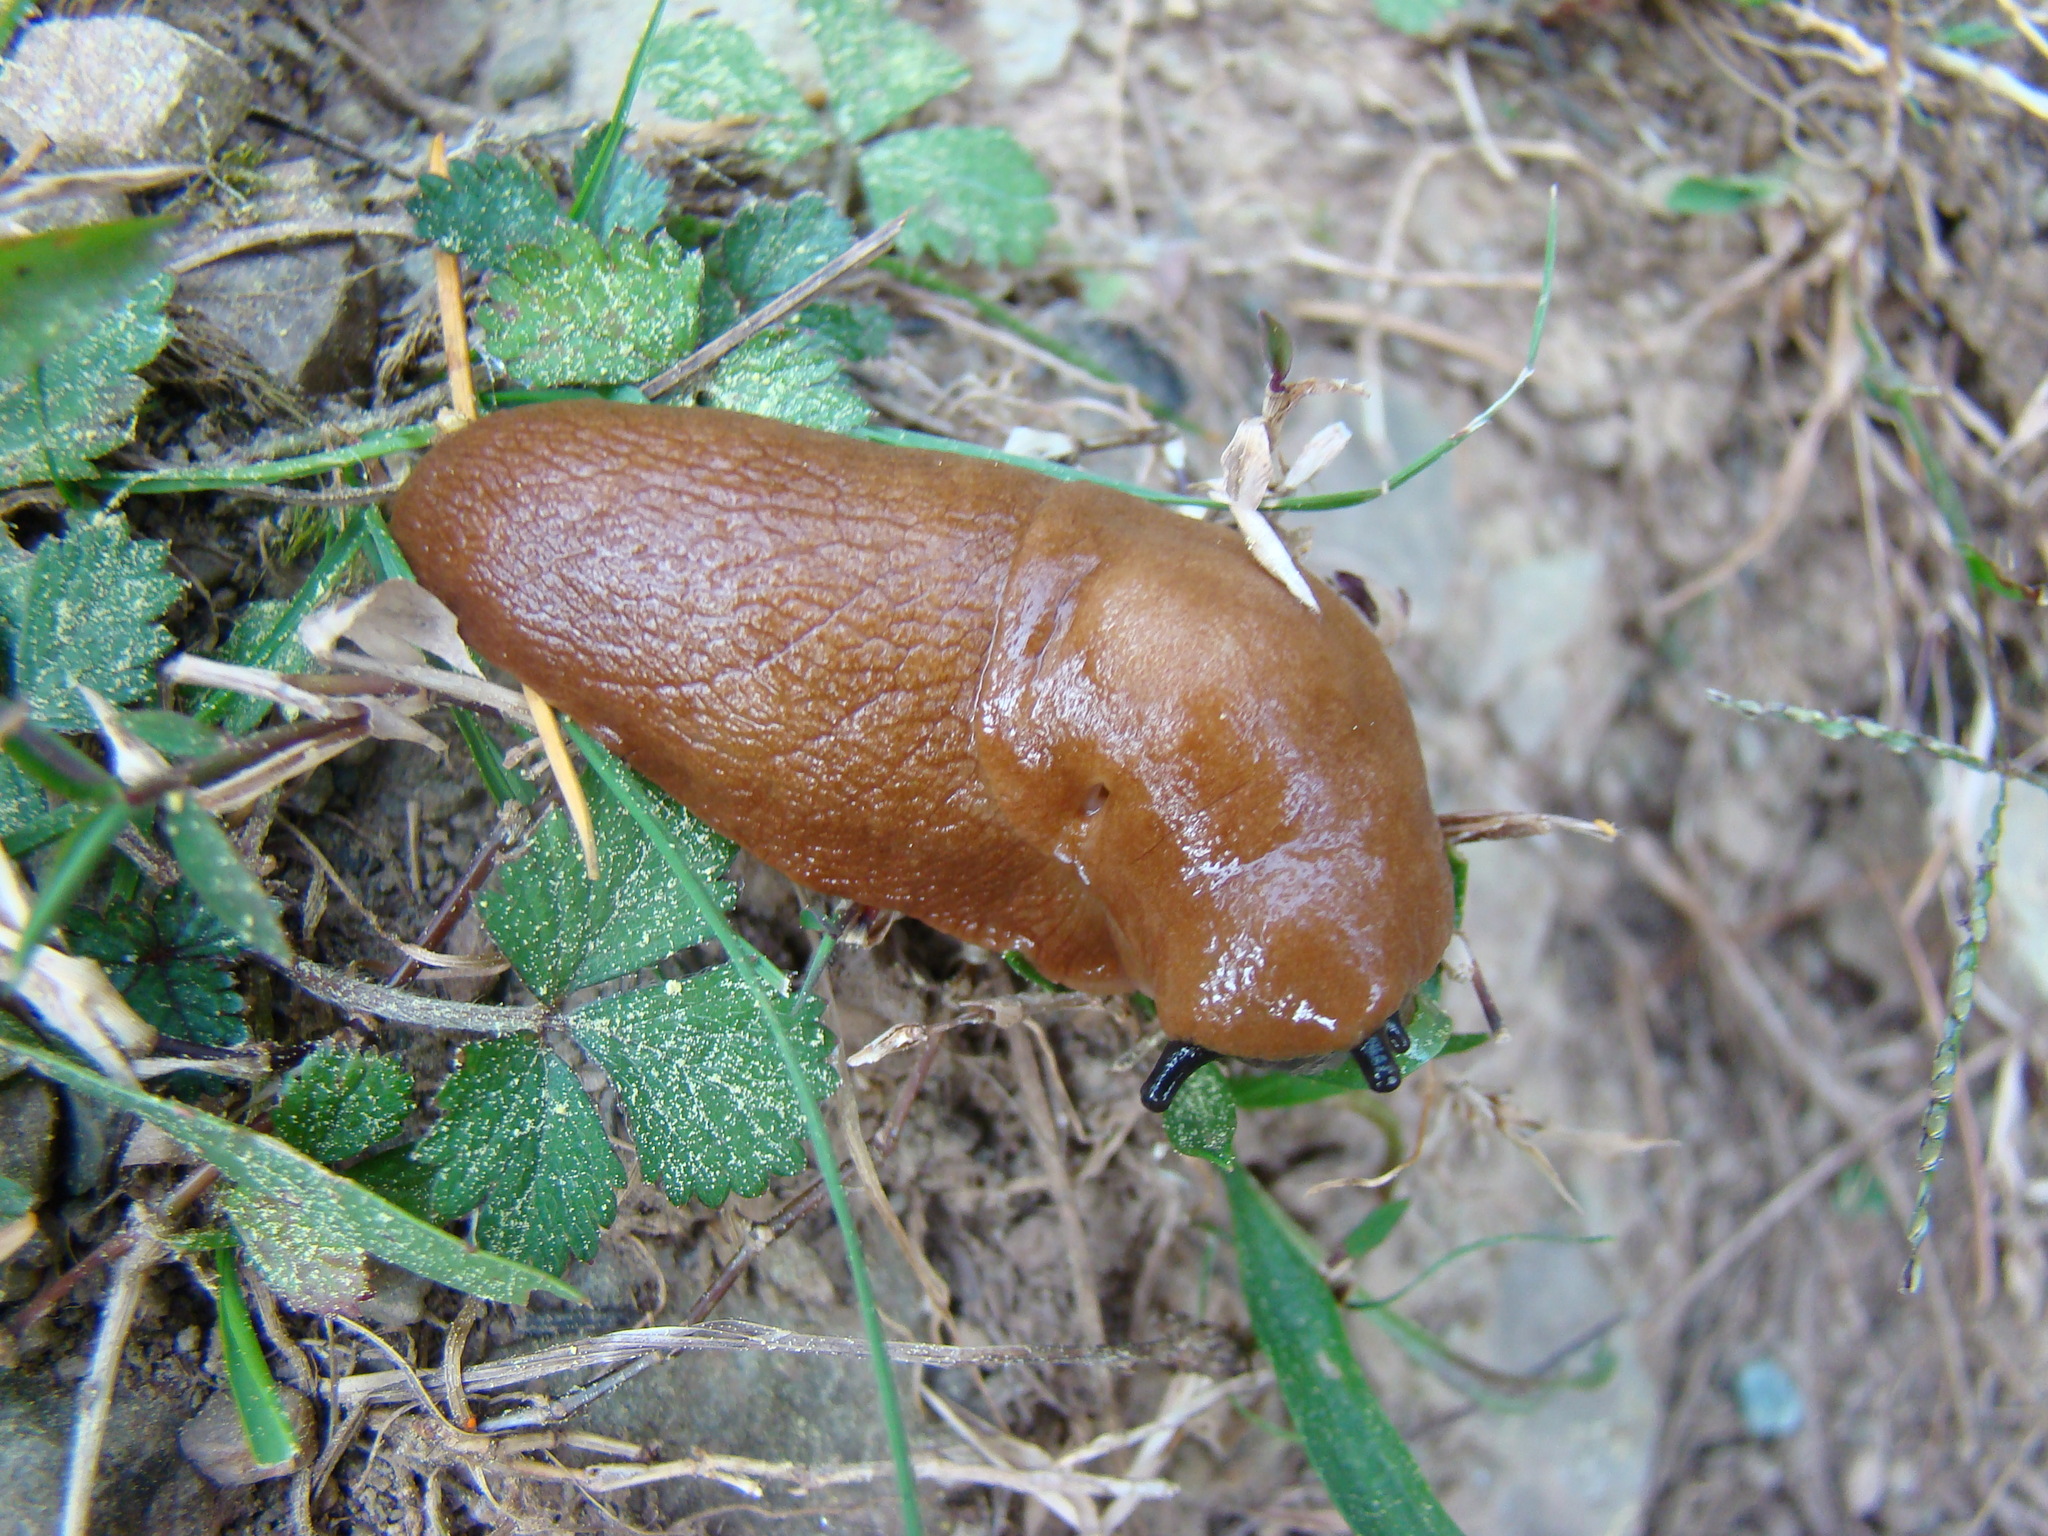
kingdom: Animalia
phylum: Mollusca
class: Gastropoda
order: Stylommatophora
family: Anadenidae
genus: Anadenus
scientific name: Anadenus altivagus
